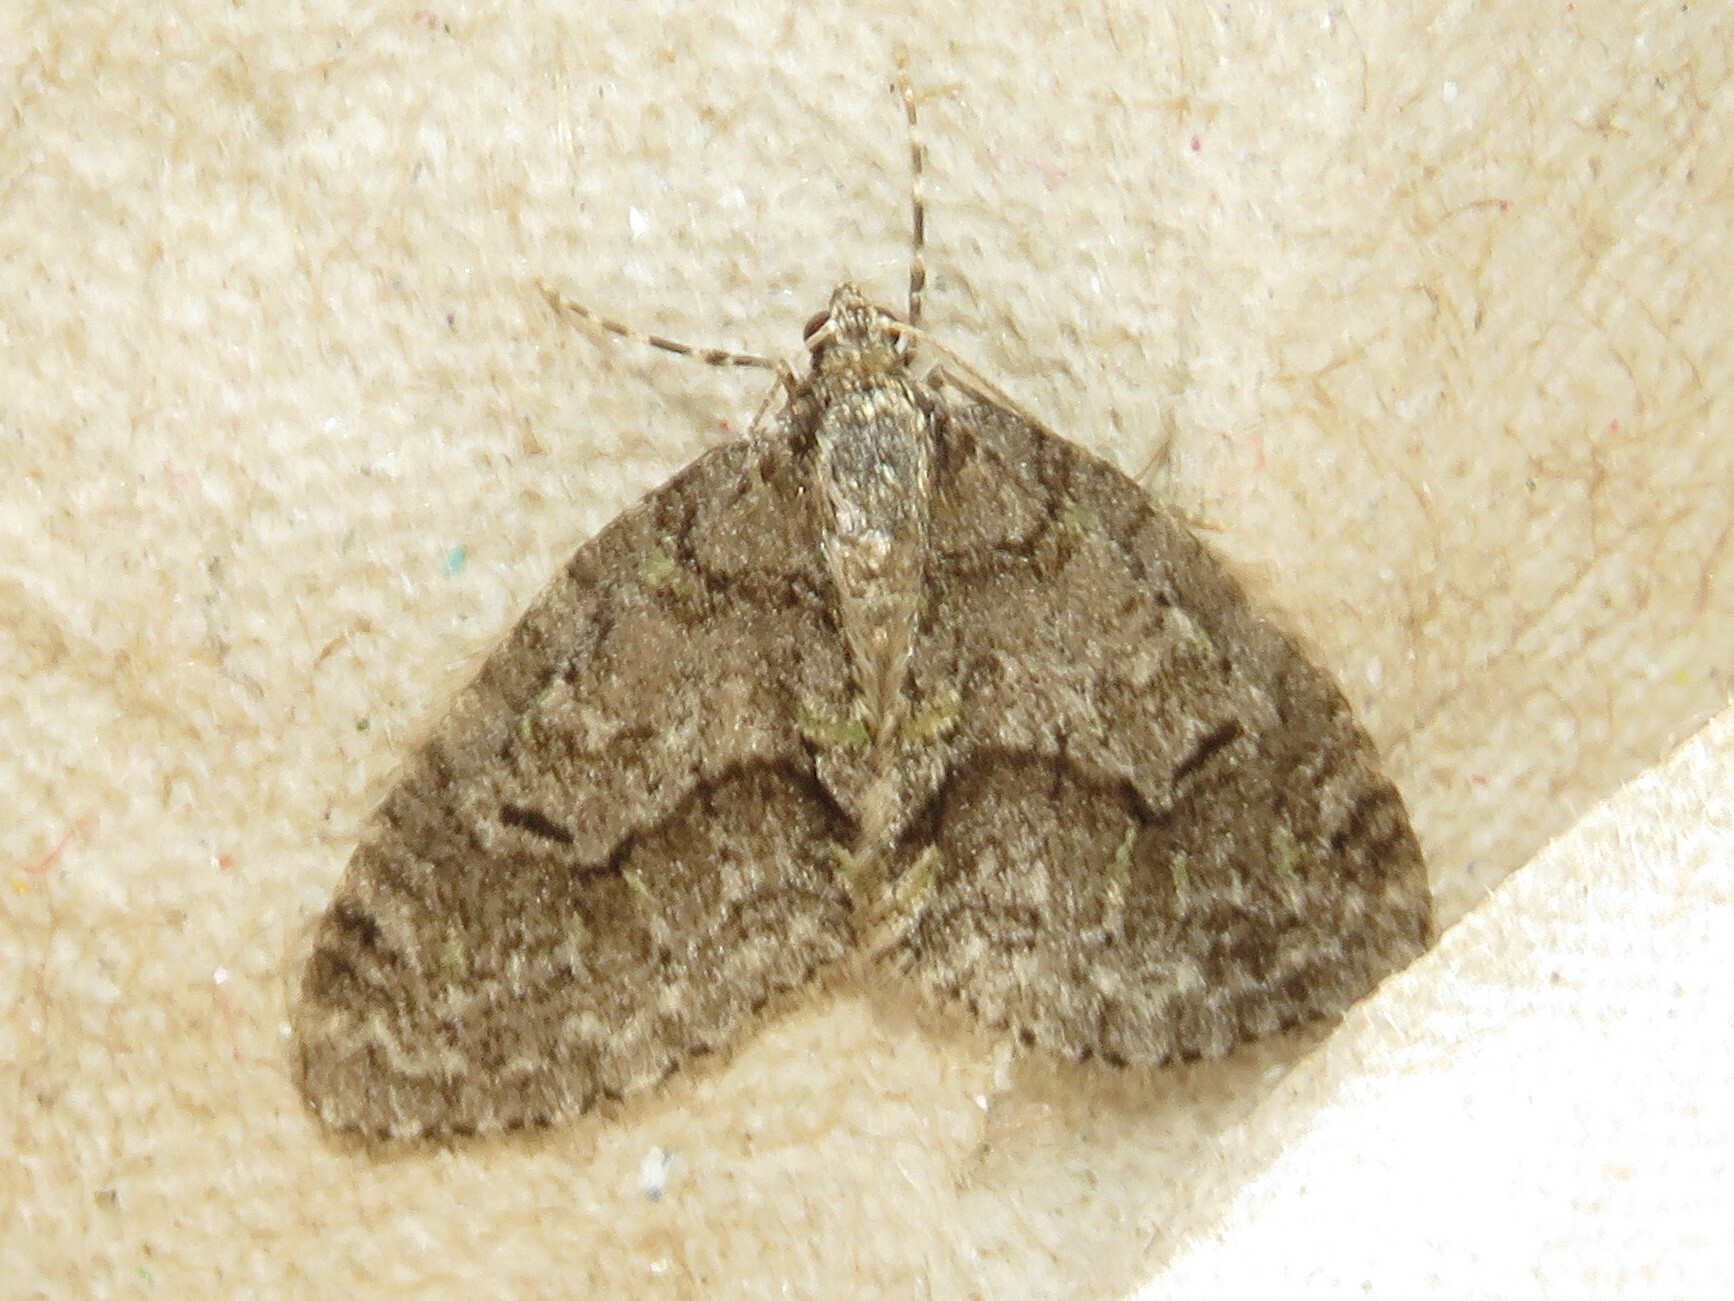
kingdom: Animalia
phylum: Arthropoda
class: Insecta
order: Lepidoptera
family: Geometridae
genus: Cladara
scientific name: Cladara limitaria
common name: Mottled gray carpet
